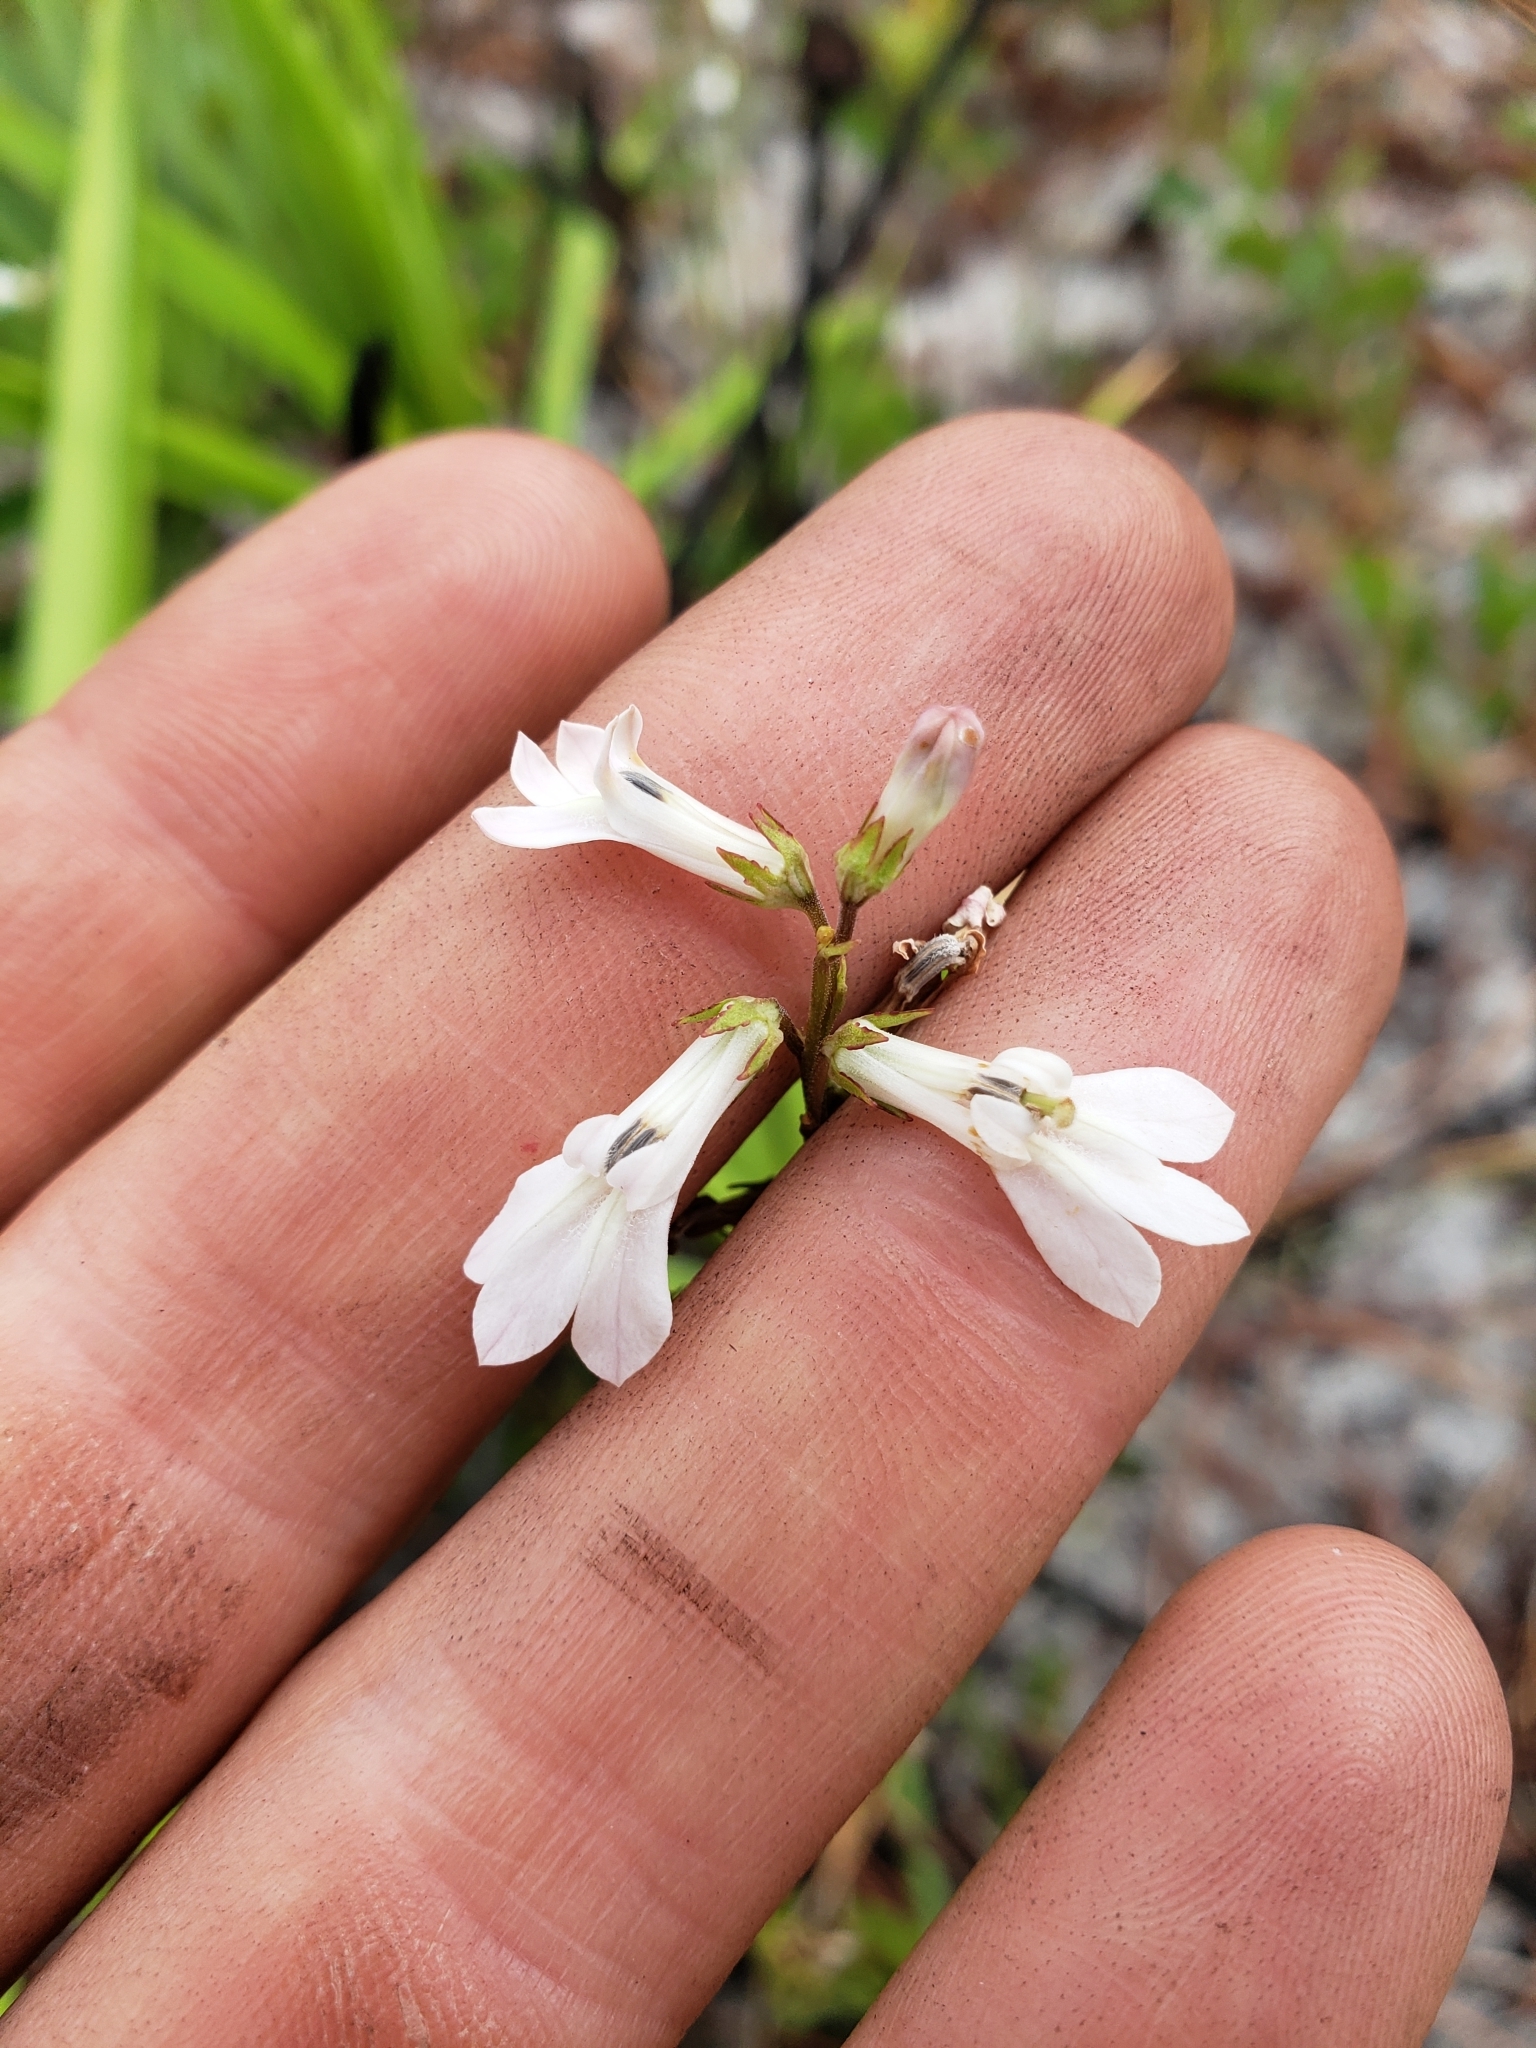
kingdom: Plantae
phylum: Tracheophyta
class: Magnoliopsida
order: Asterales
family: Campanulaceae
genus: Lobelia
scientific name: Lobelia paludosa
